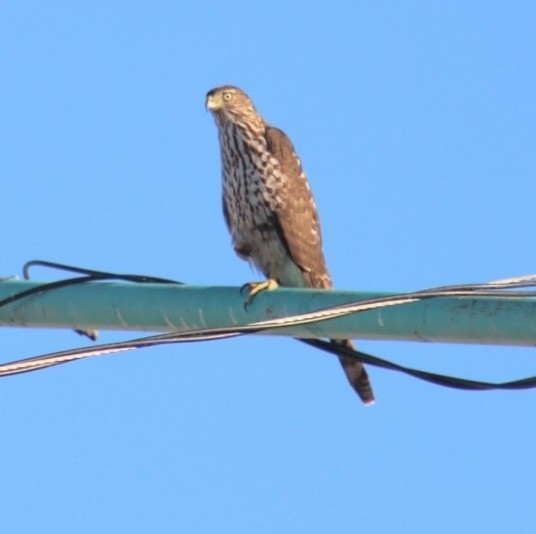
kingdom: Animalia
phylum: Chordata
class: Aves
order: Accipitriformes
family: Accipitridae
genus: Accipiter
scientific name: Accipiter cooperii
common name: Cooper's hawk
